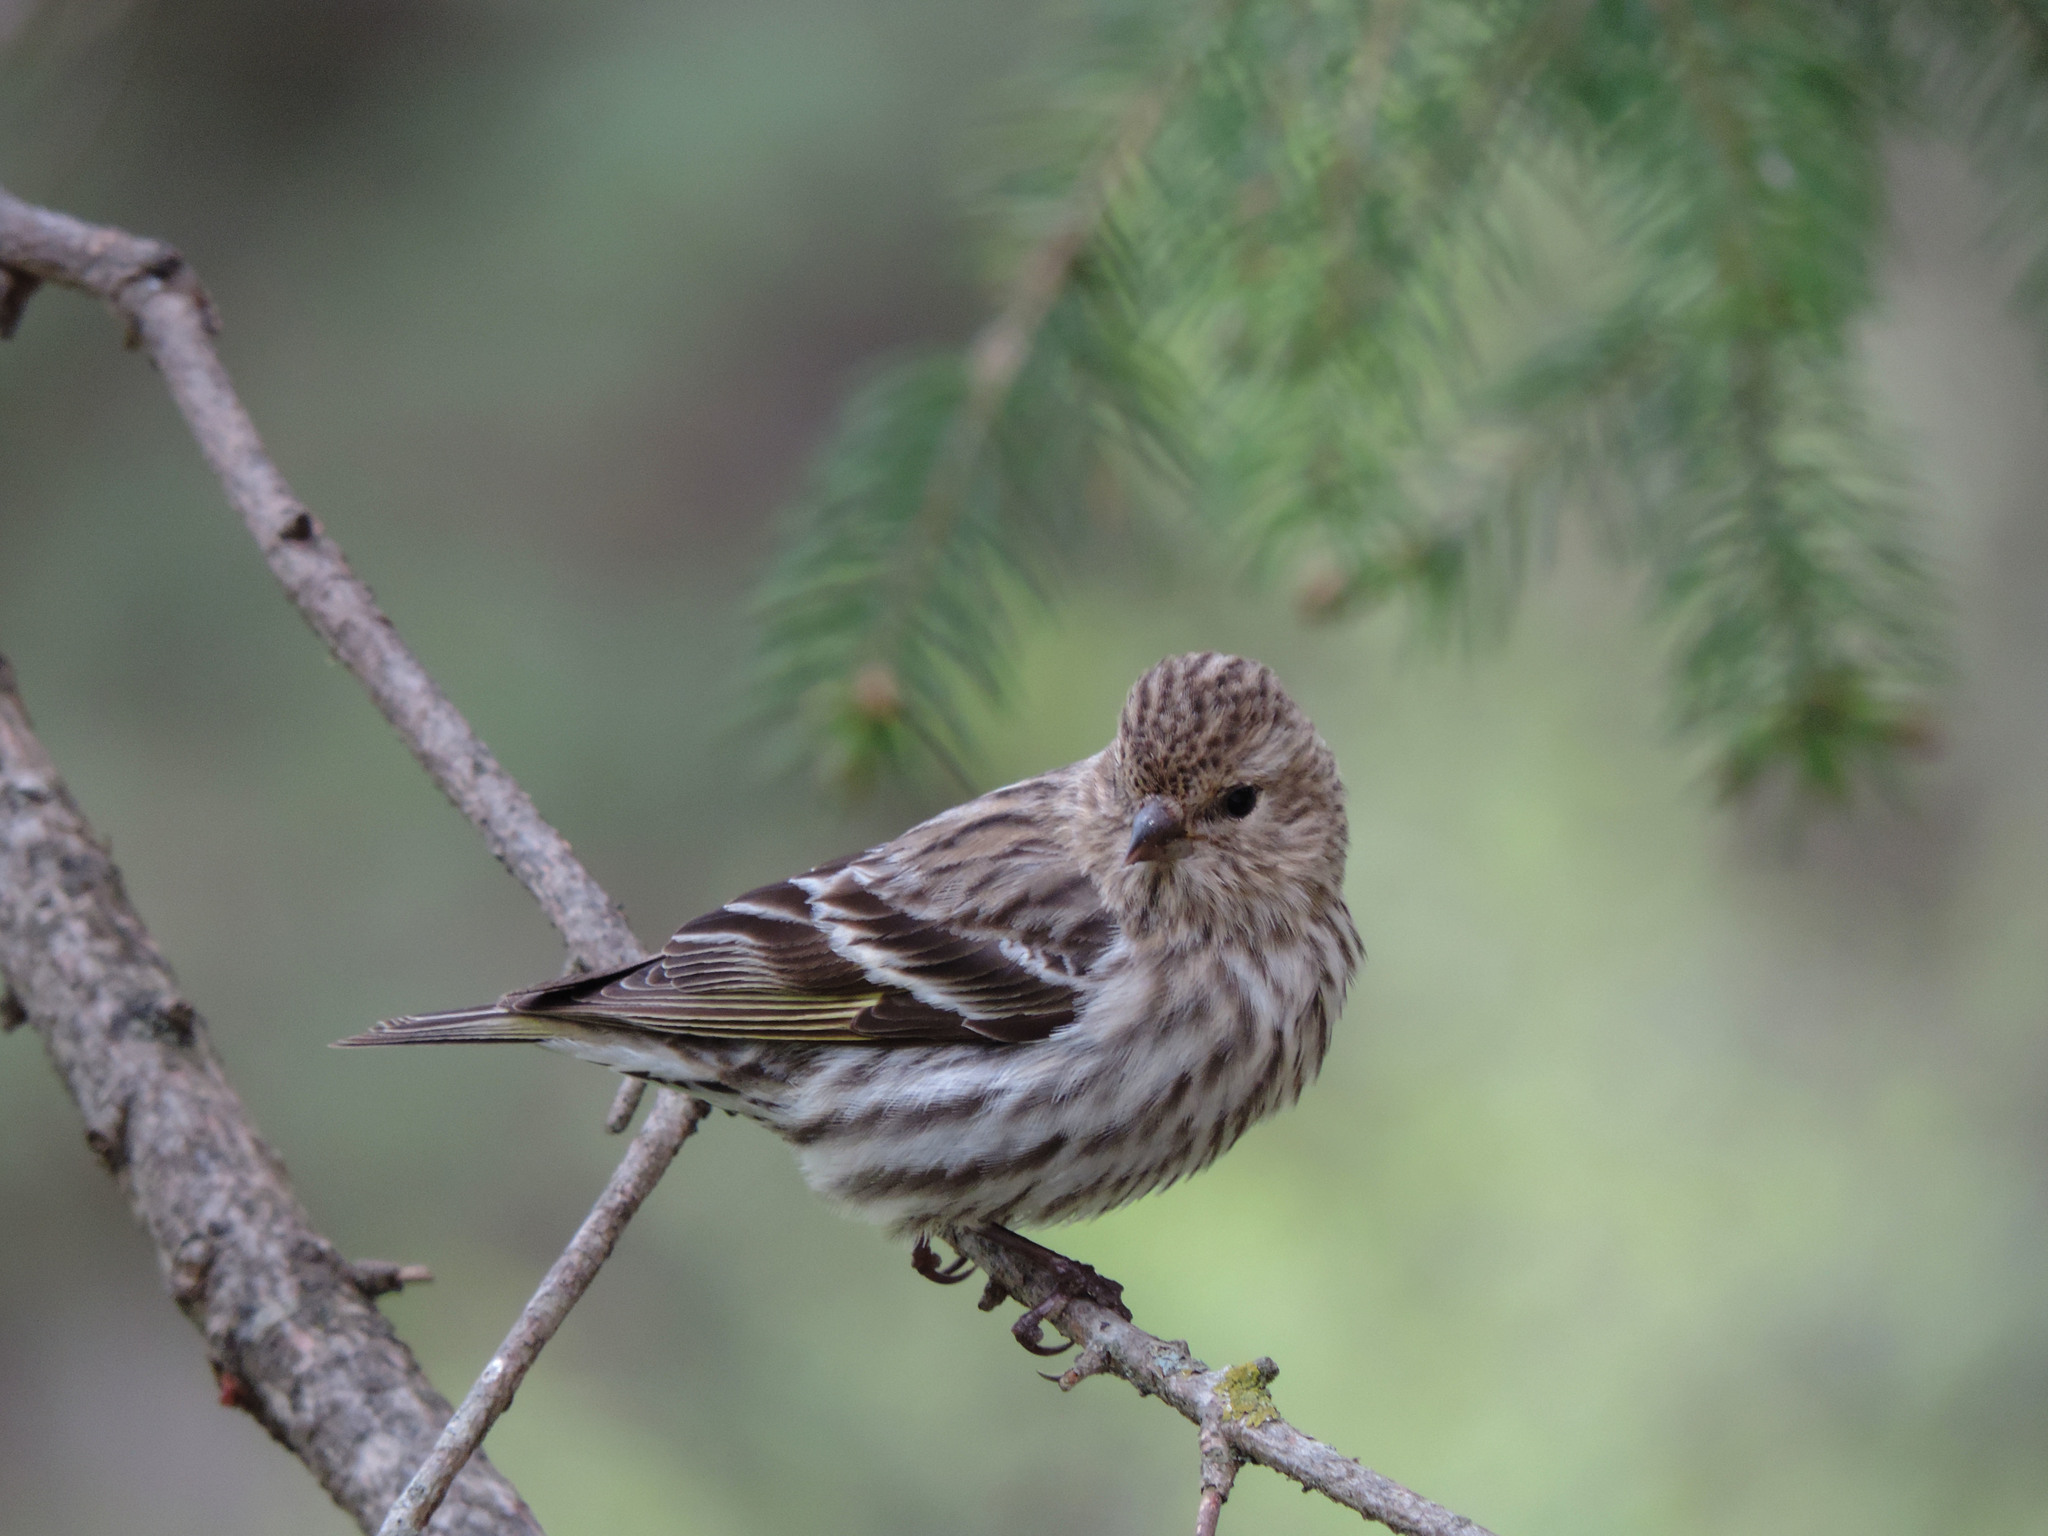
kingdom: Animalia
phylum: Chordata
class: Aves
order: Passeriformes
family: Fringillidae
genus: Spinus
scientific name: Spinus pinus
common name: Pine siskin
